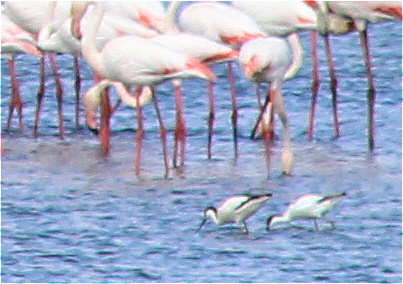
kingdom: Animalia
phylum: Chordata
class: Aves
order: Charadriiformes
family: Recurvirostridae
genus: Recurvirostra
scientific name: Recurvirostra avosetta
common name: Pied avocet
